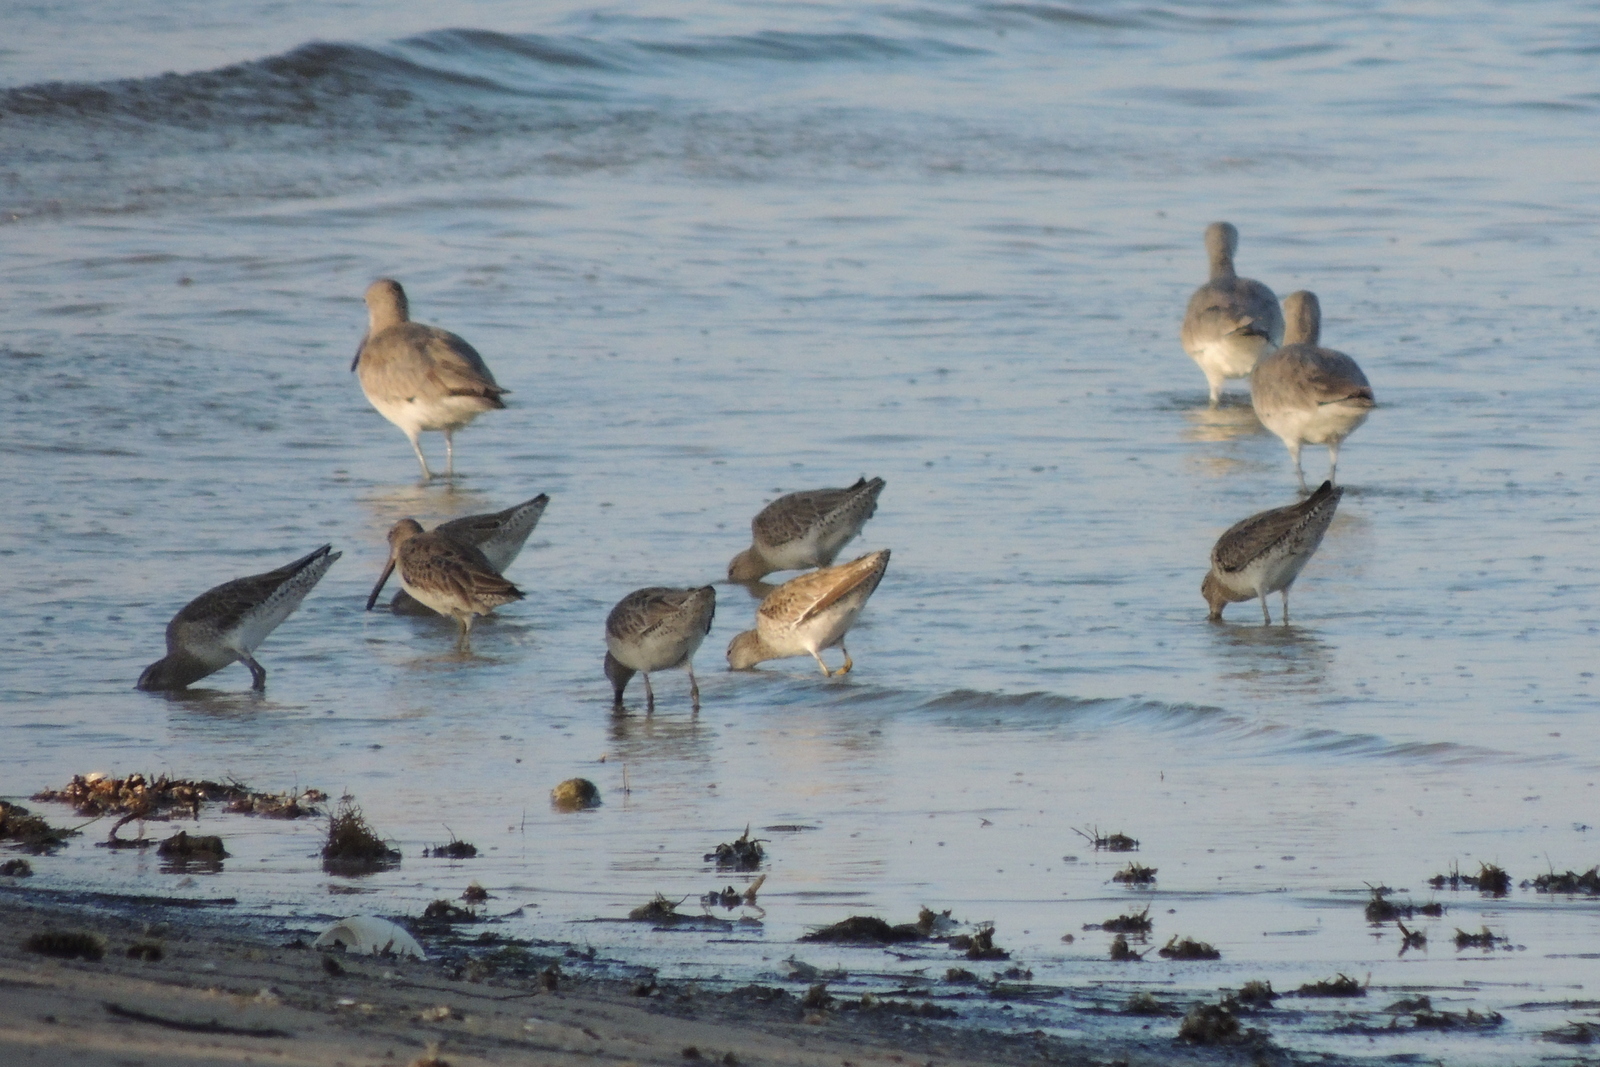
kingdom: Animalia
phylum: Chordata
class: Aves
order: Charadriiformes
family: Scolopacidae
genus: Tringa
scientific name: Tringa semipalmata
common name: Willet
